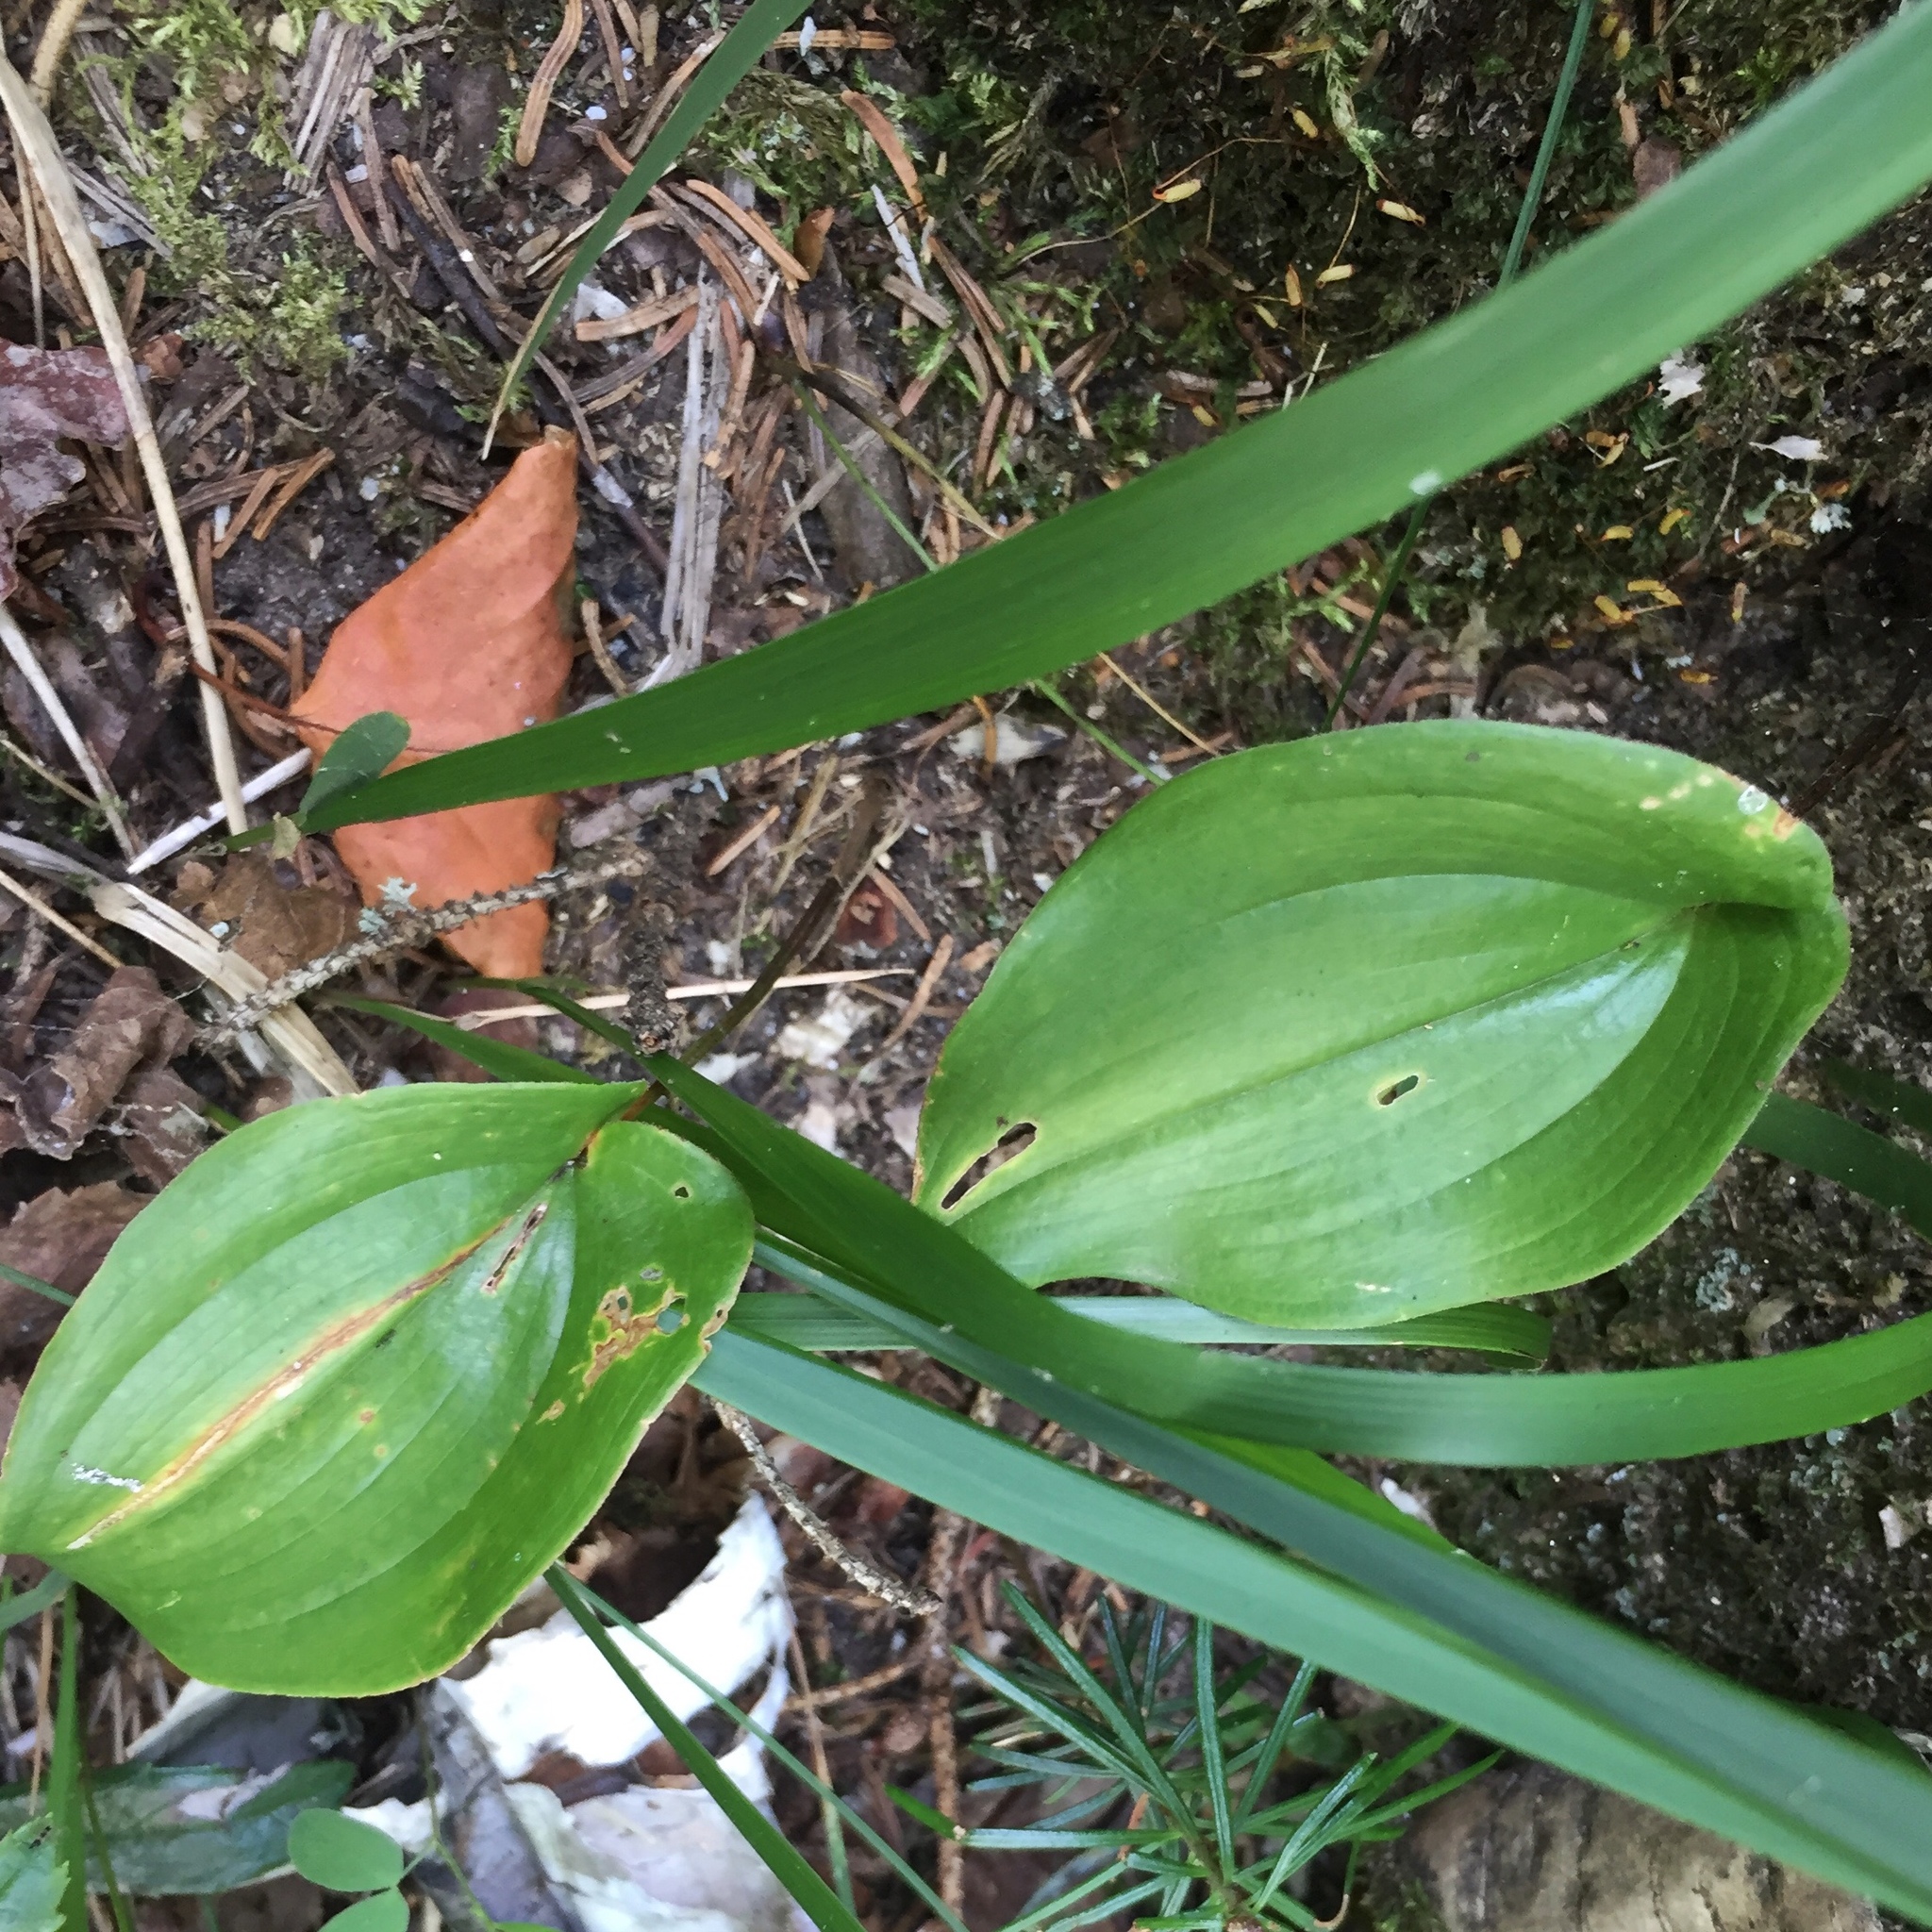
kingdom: Plantae
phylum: Tracheophyta
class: Liliopsida
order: Asparagales
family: Asparagaceae
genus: Maianthemum
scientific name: Maianthemum canadense
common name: False lily-of-the-valley
